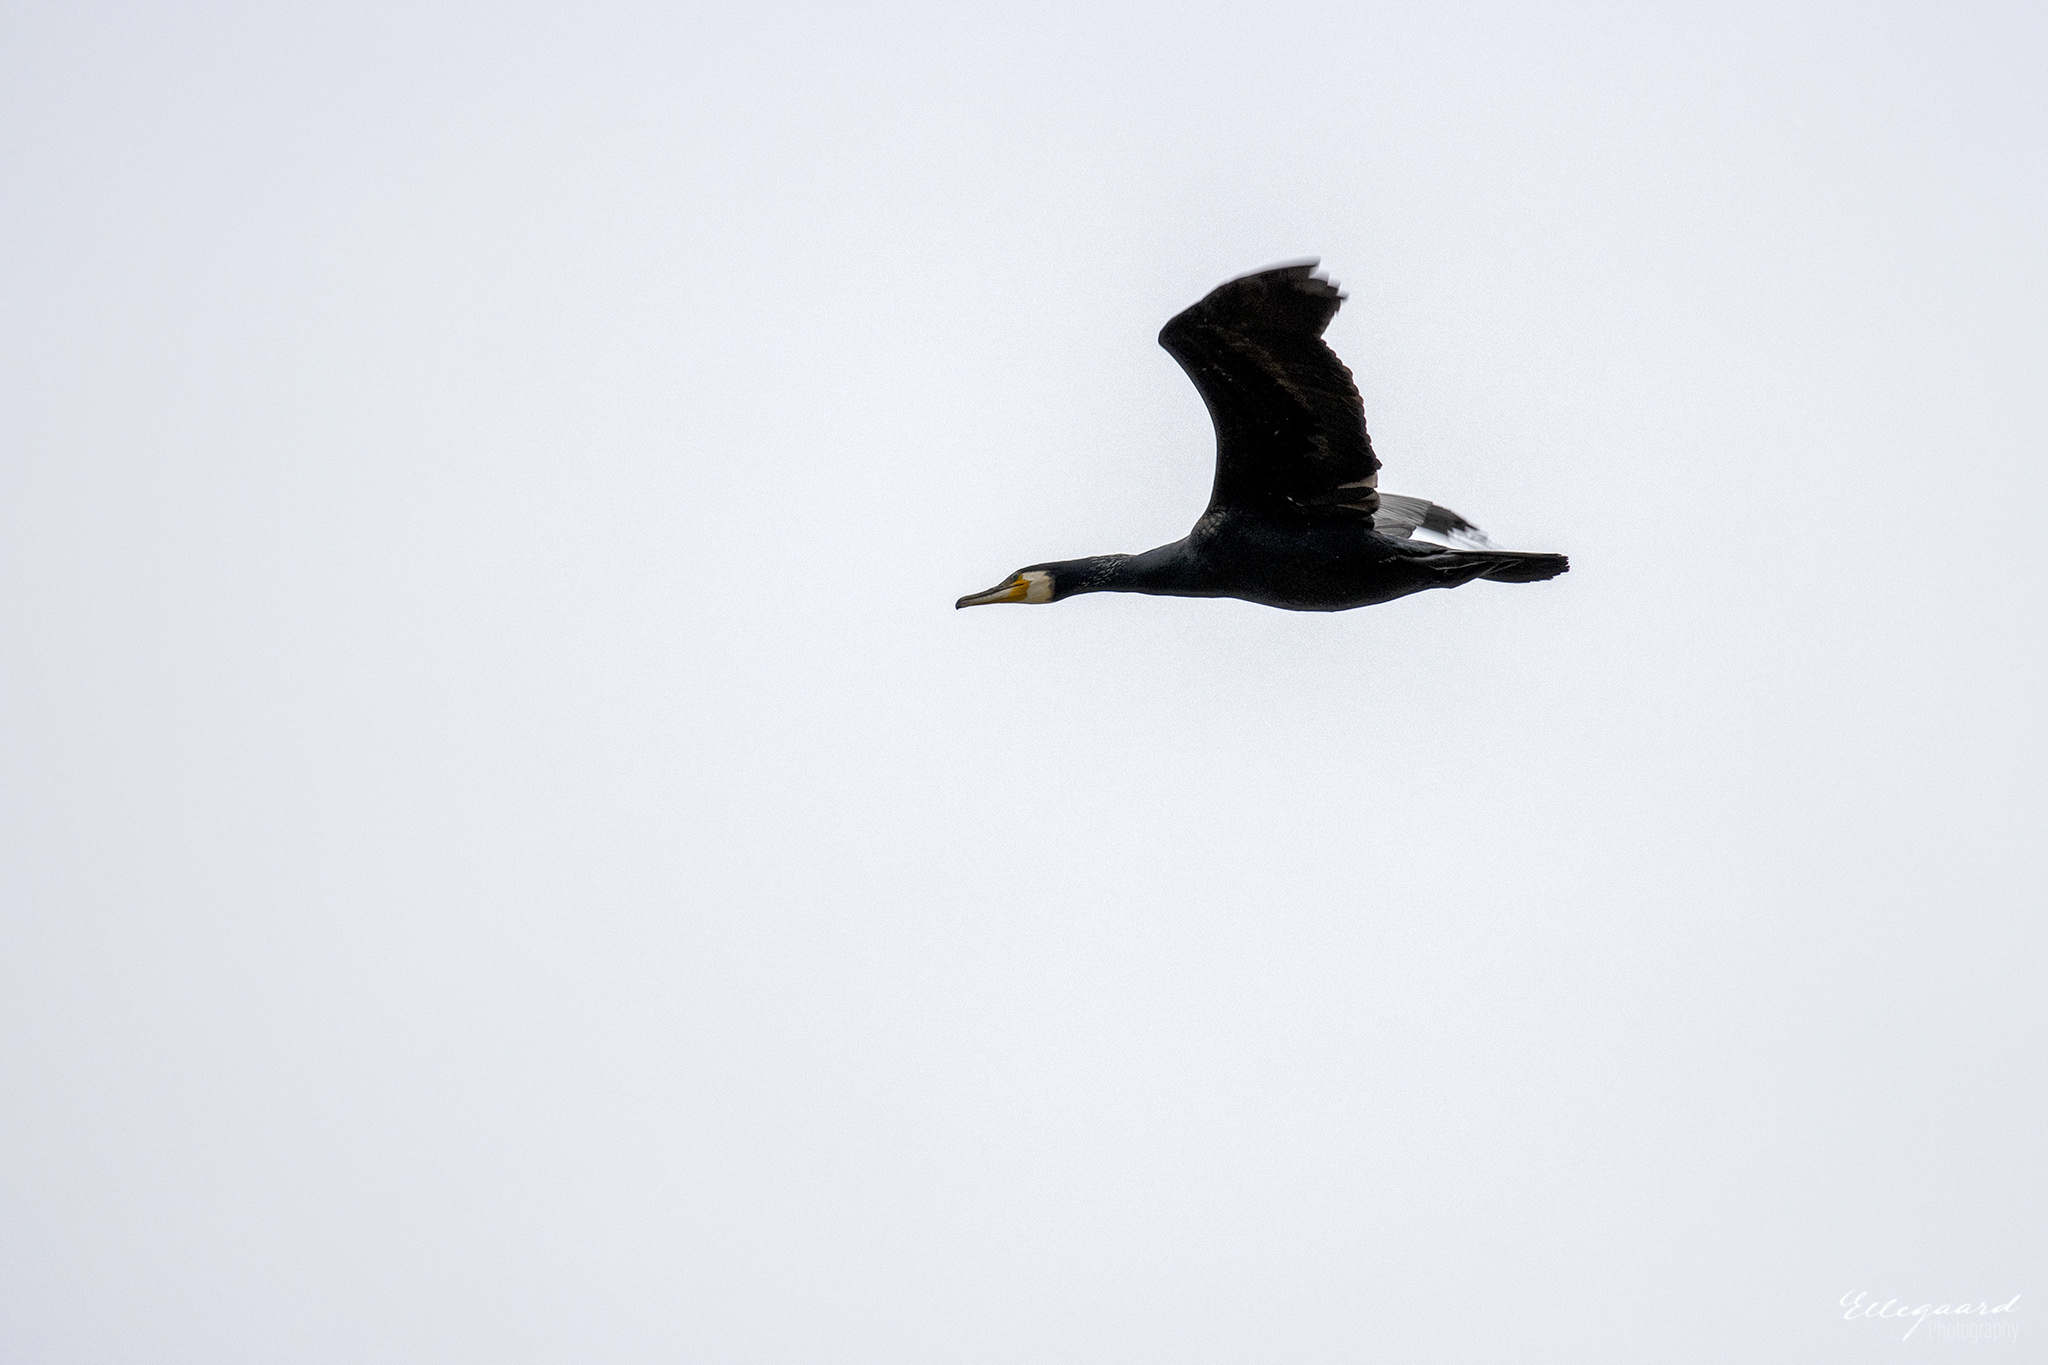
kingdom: Animalia
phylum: Chordata
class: Aves
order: Suliformes
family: Phalacrocoracidae
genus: Phalacrocorax
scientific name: Phalacrocorax carbo
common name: Great cormorant
